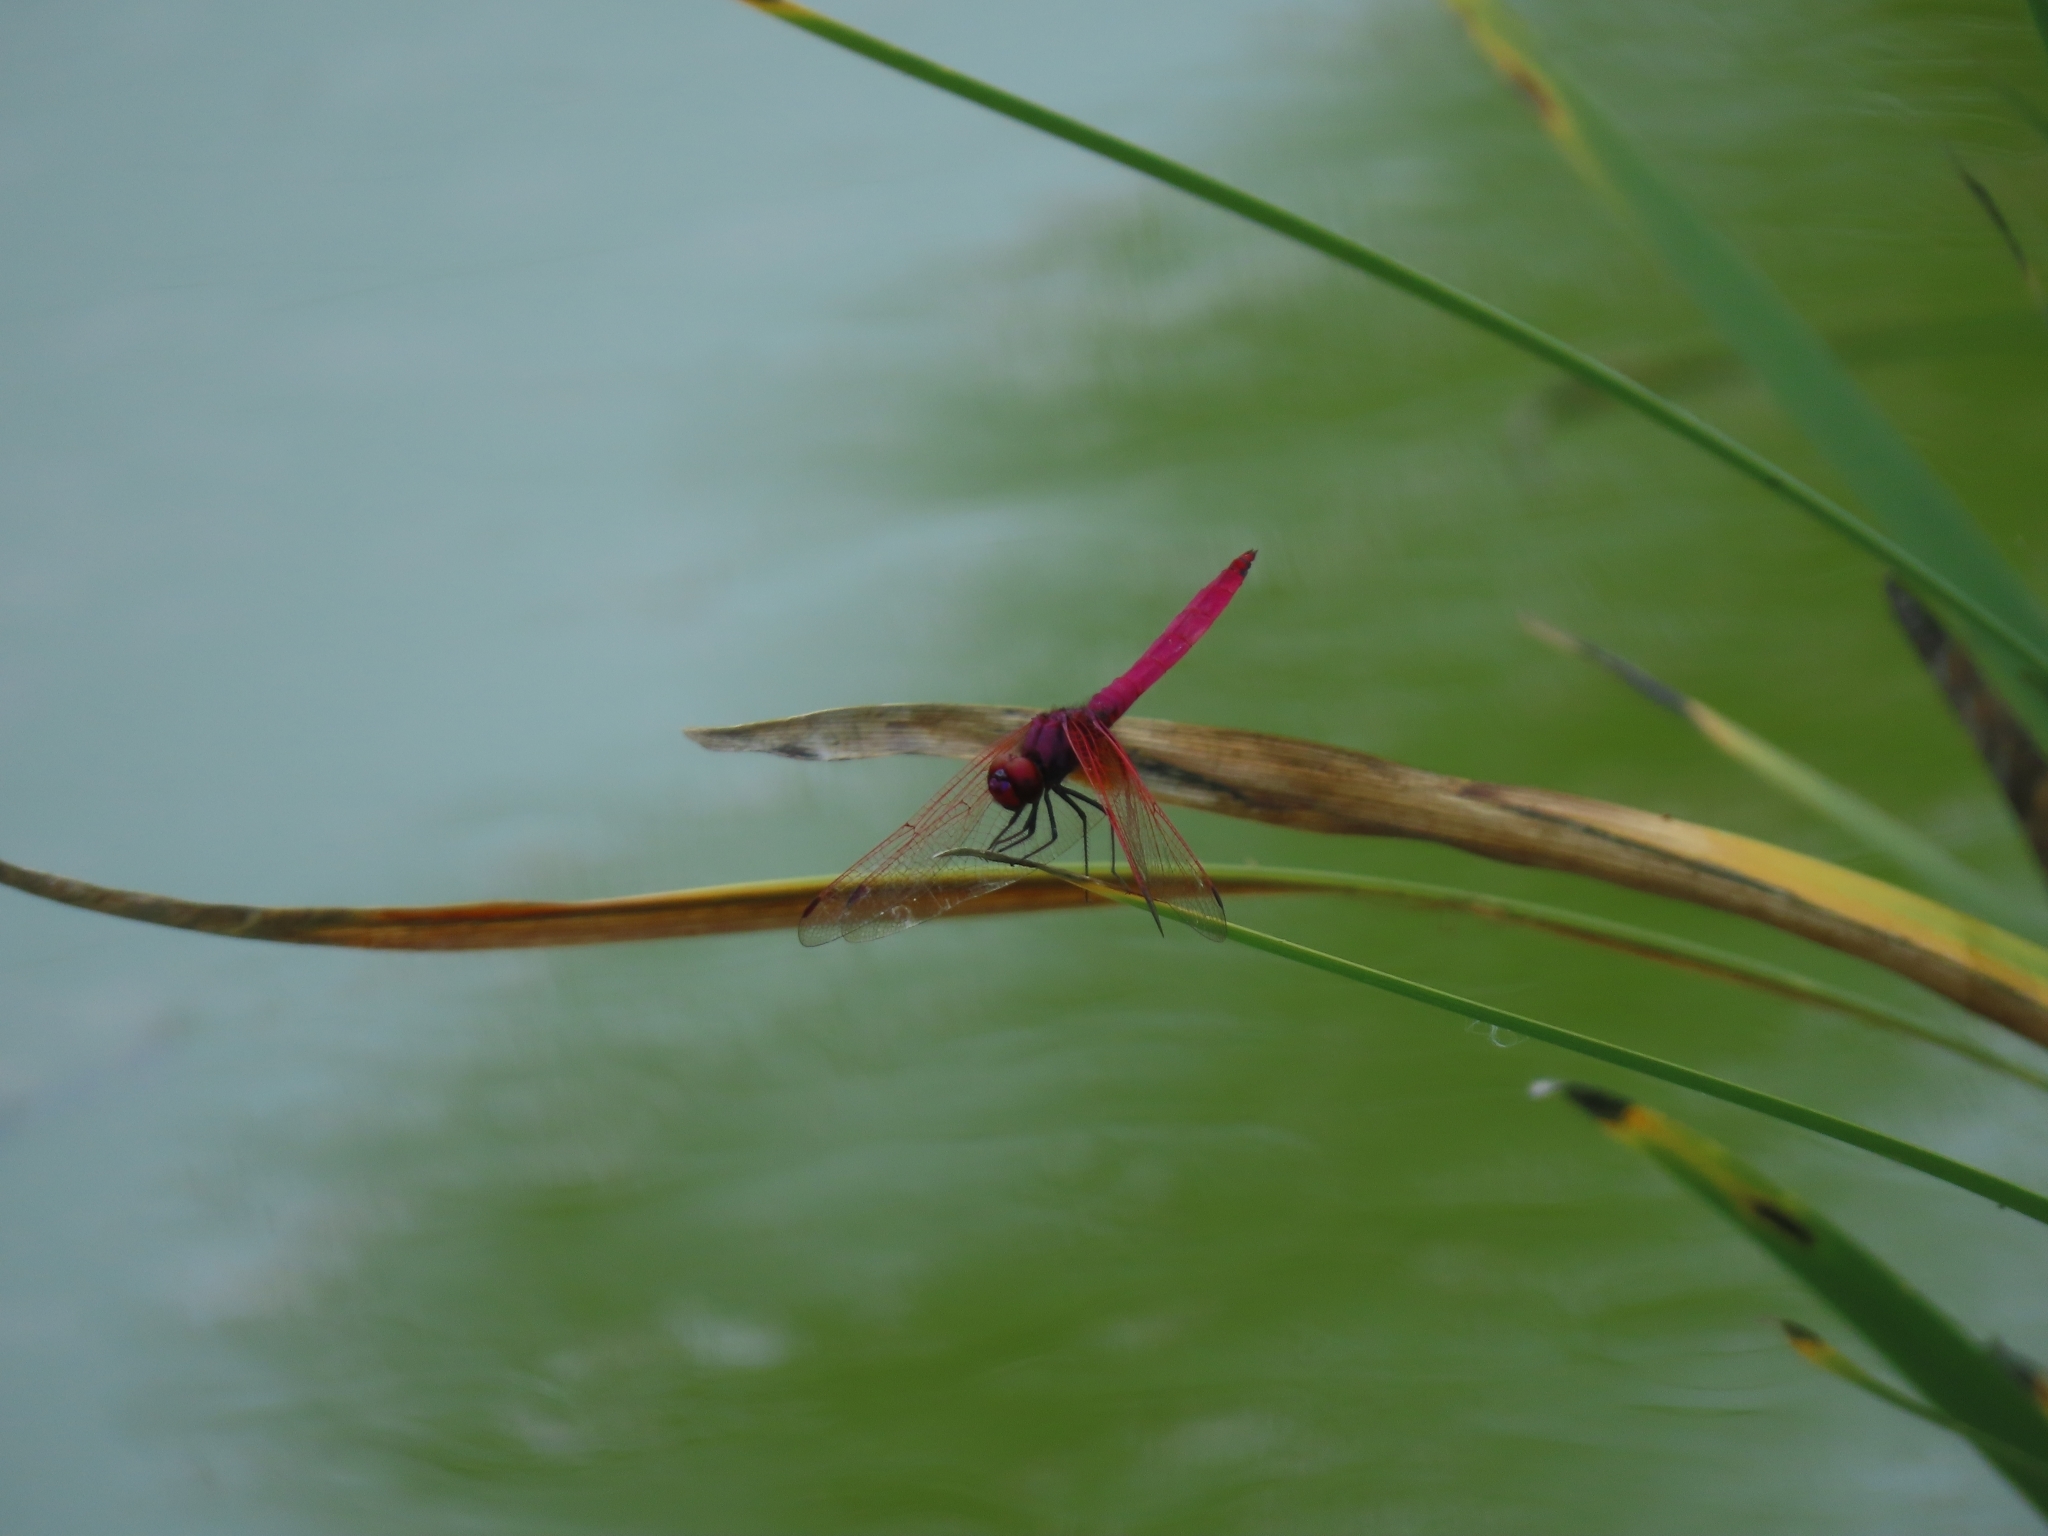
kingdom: Animalia
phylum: Arthropoda
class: Insecta
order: Odonata
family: Libellulidae
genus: Trithemis
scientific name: Trithemis aurora
